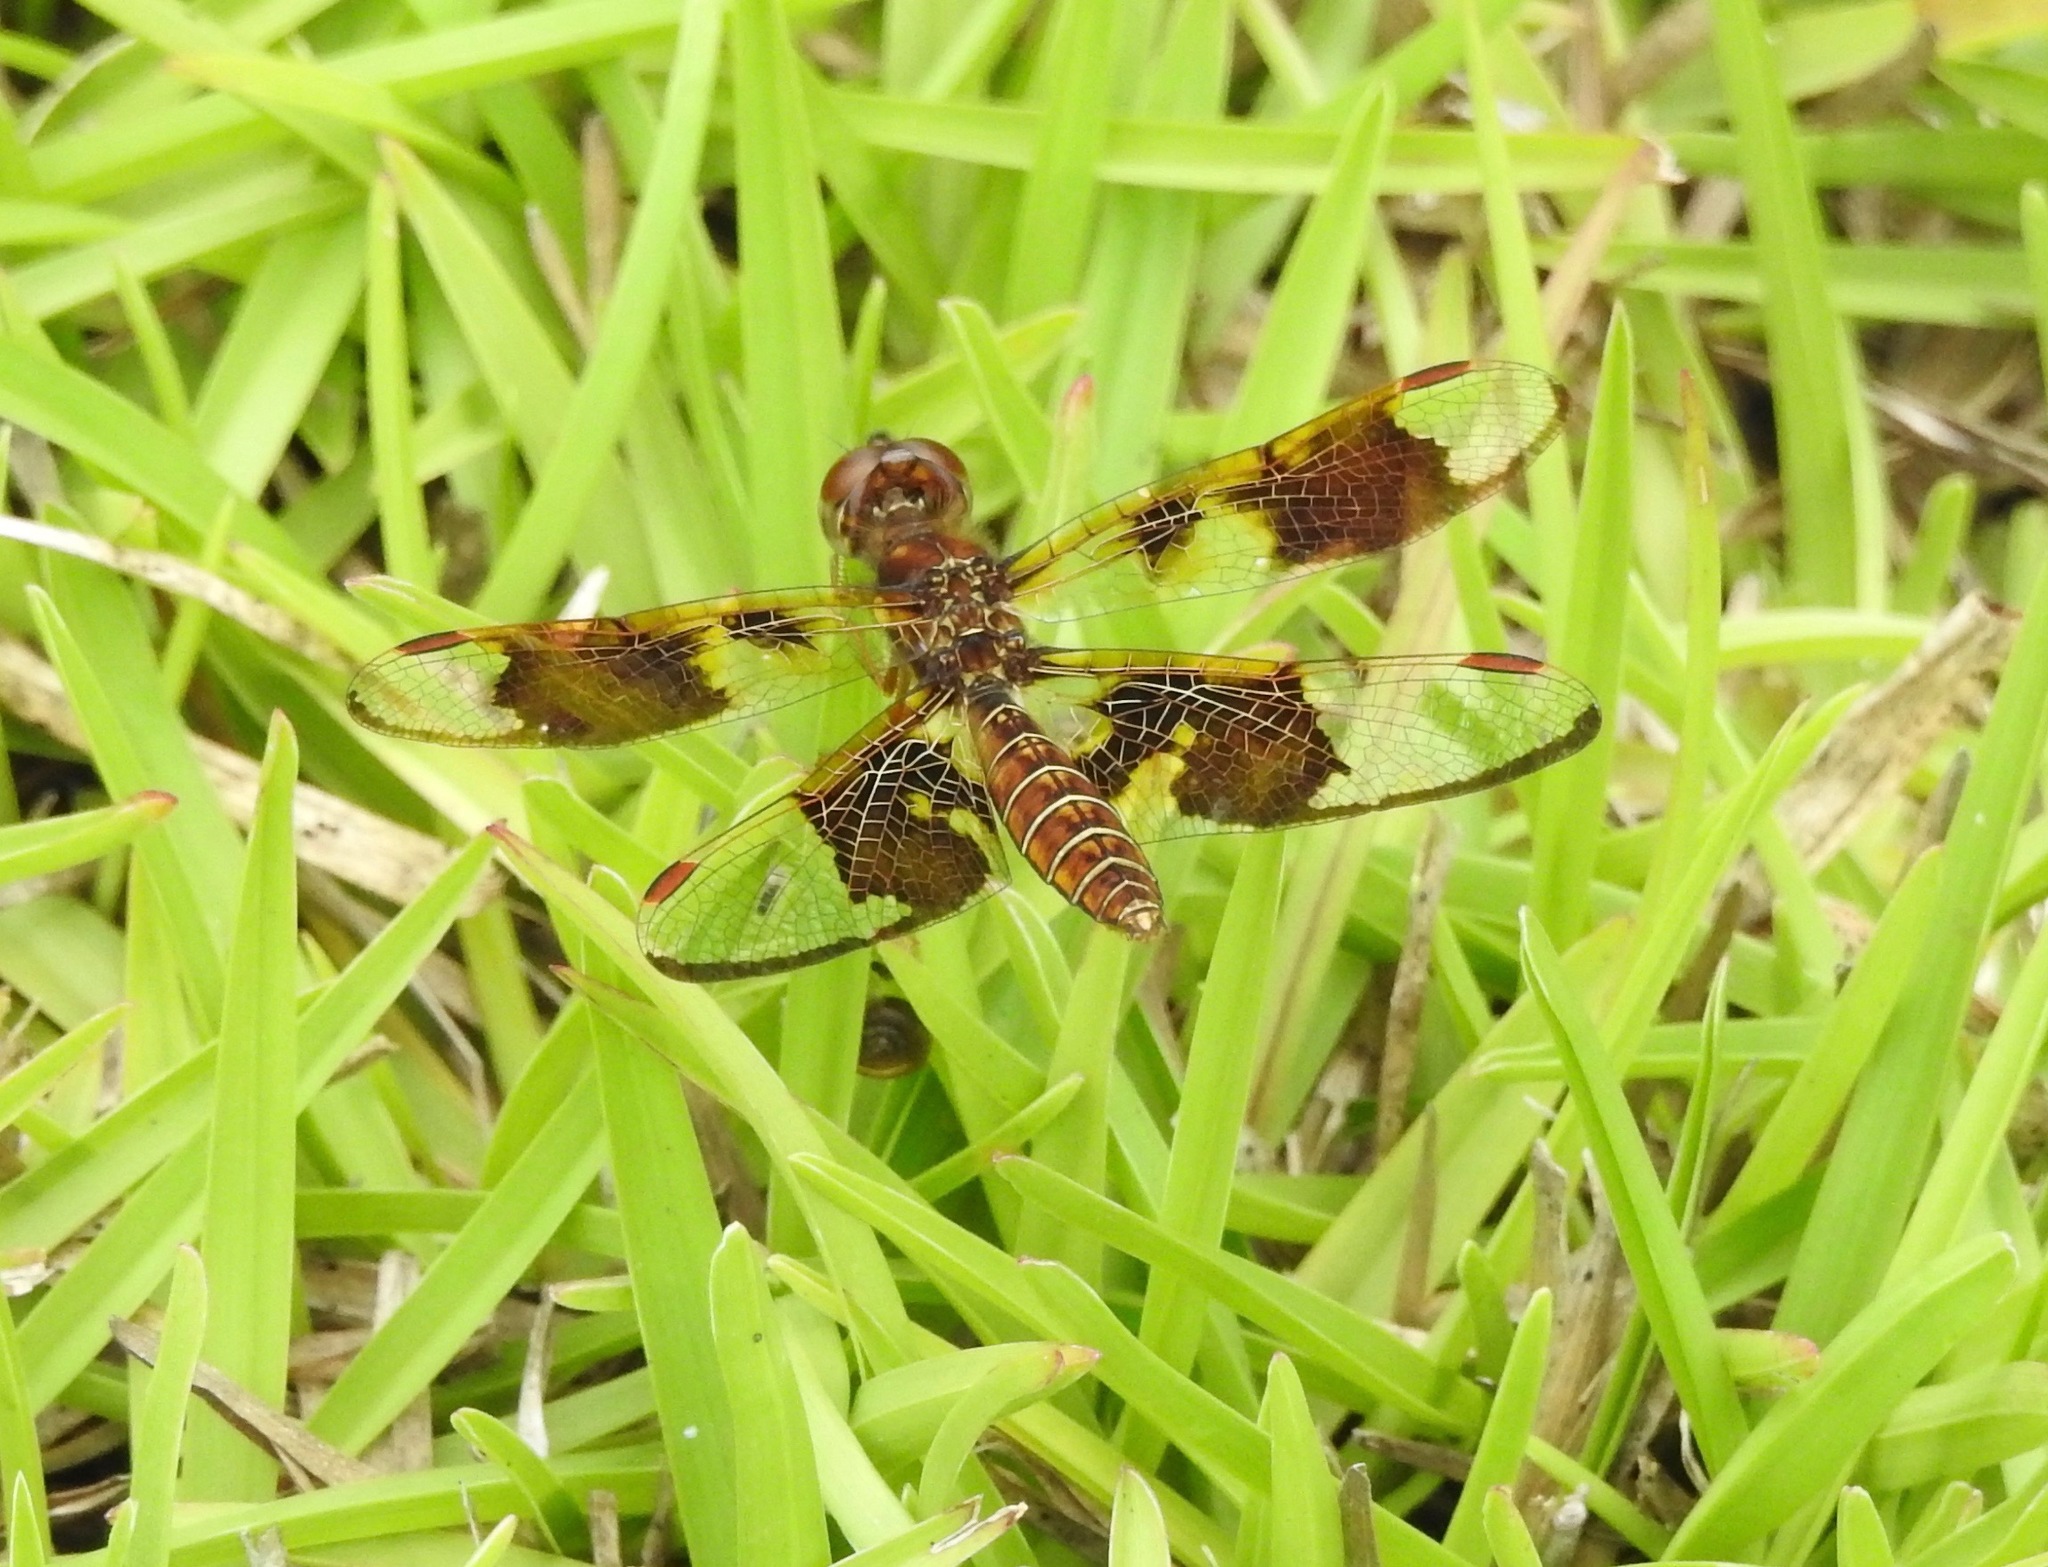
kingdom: Animalia
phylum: Arthropoda
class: Insecta
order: Odonata
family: Libellulidae
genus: Perithemis
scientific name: Perithemis tenera
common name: Eastern amberwing
